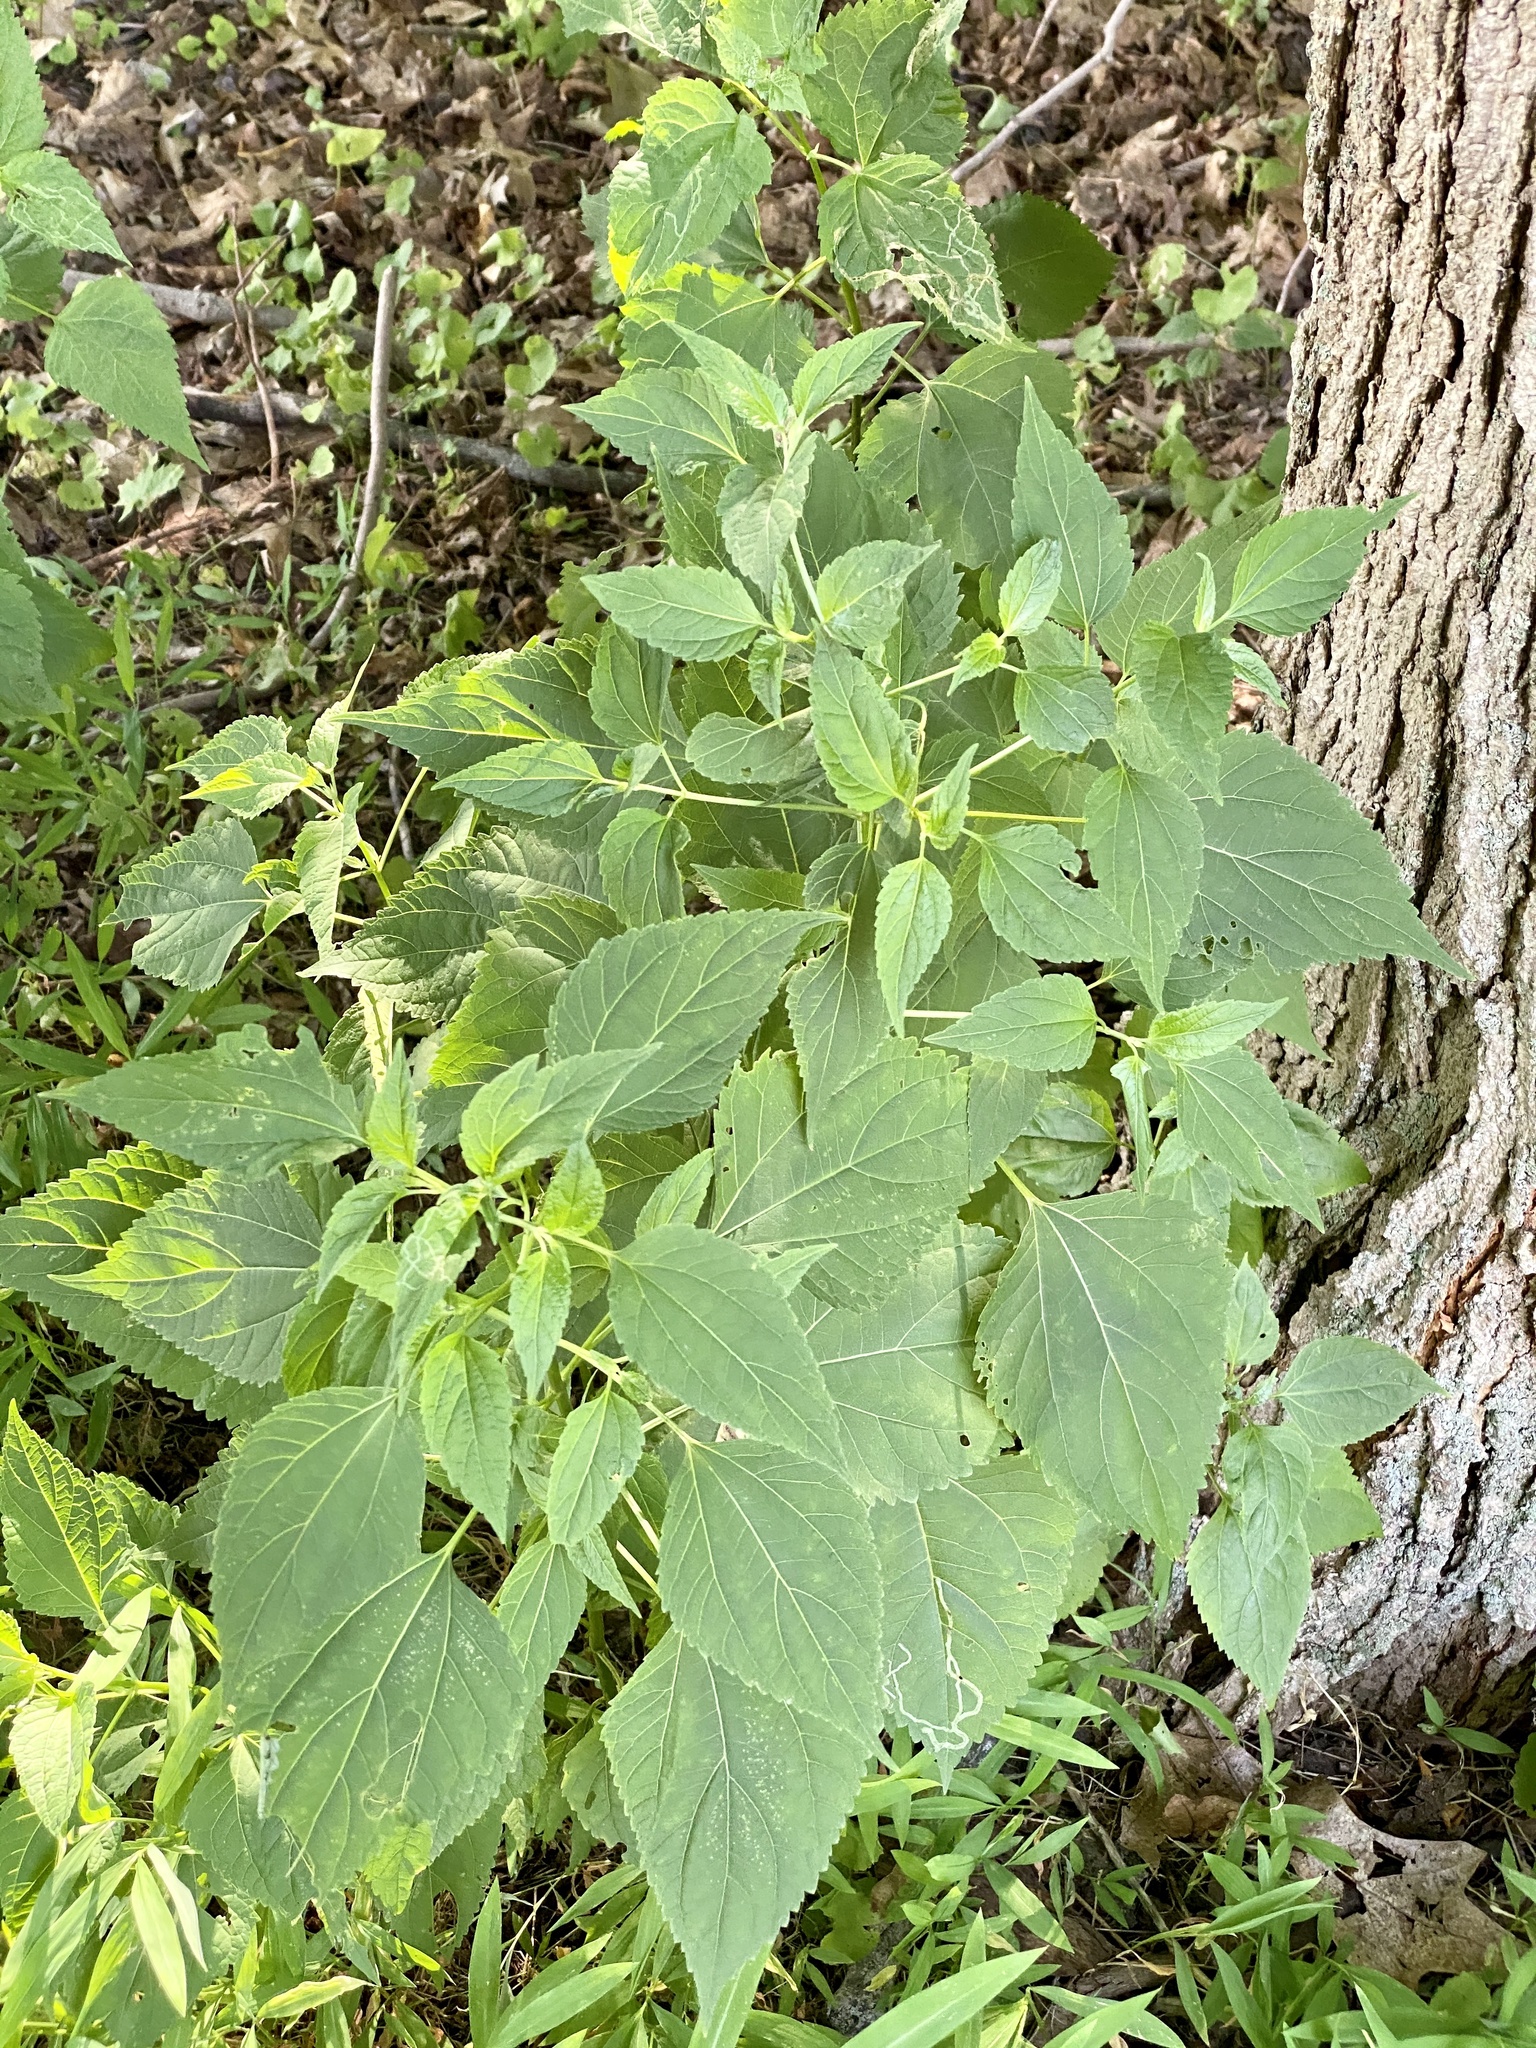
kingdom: Plantae
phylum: Tracheophyta
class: Magnoliopsida
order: Asterales
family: Asteraceae
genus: Ageratina
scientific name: Ageratina altissima
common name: White snakeroot
